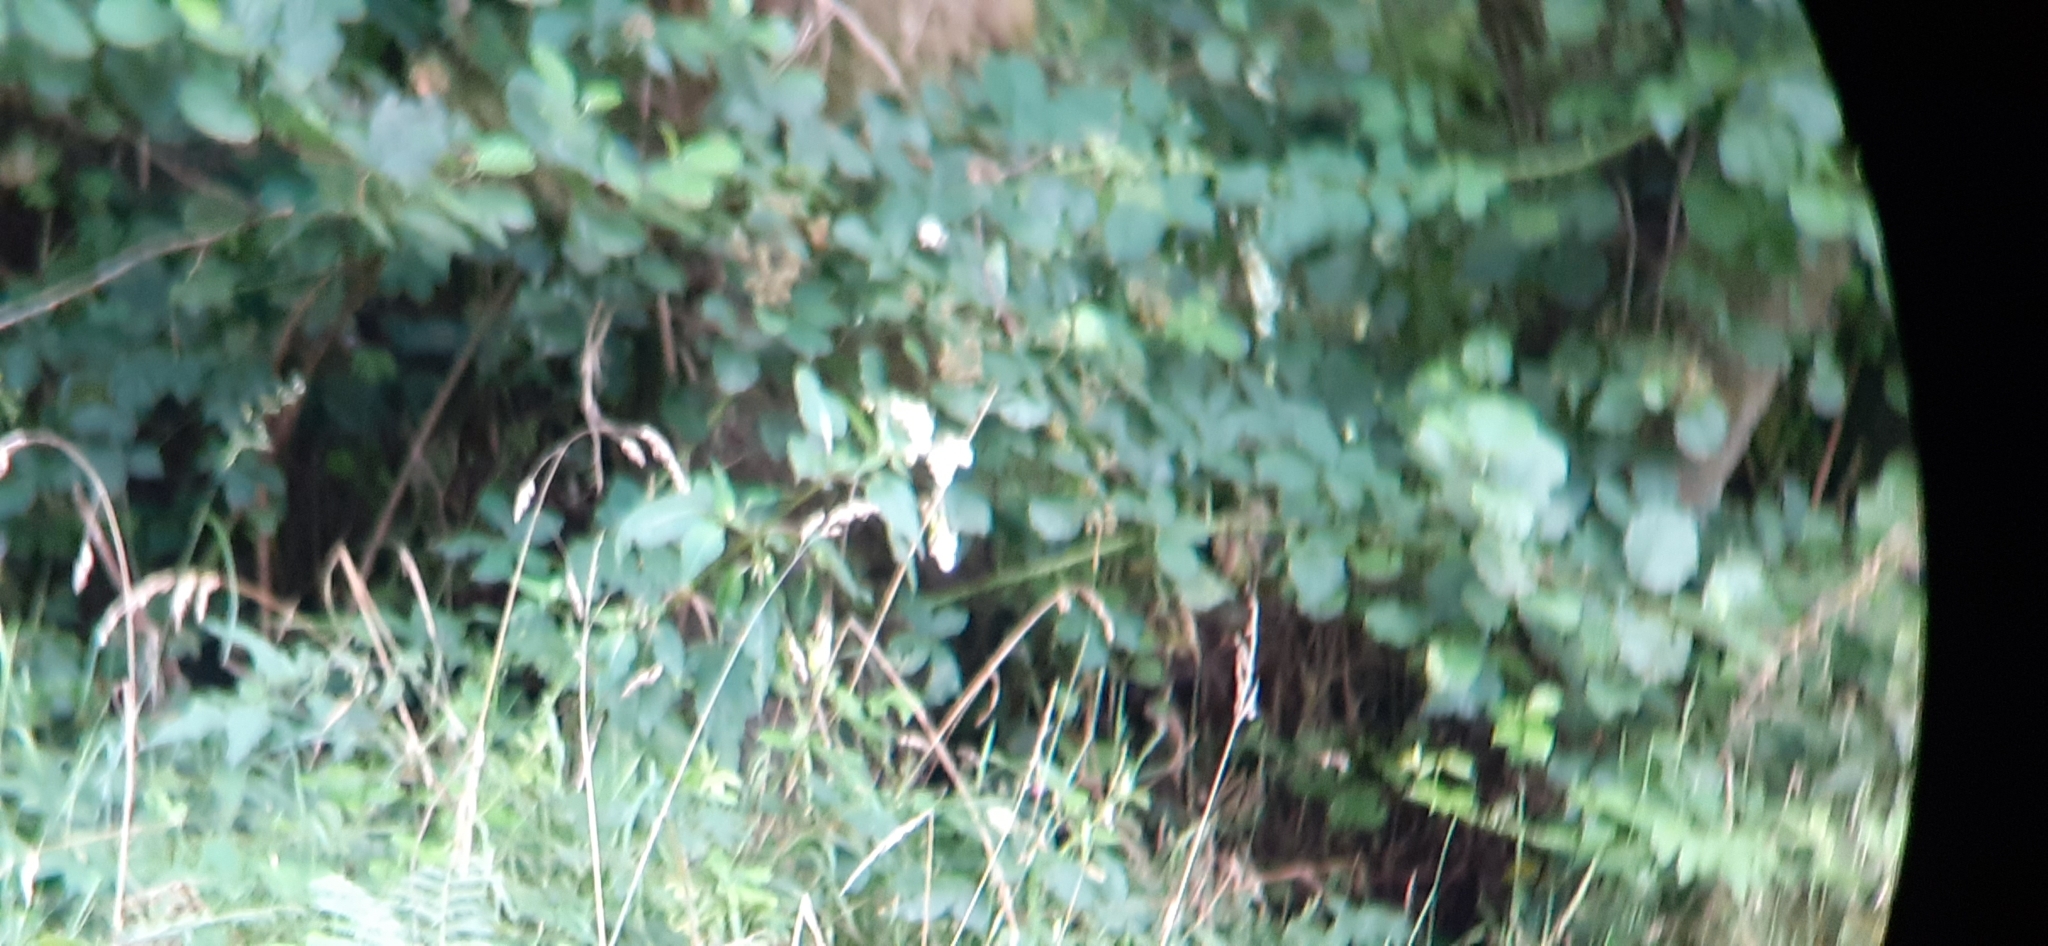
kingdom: Plantae
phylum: Tracheophyta
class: Magnoliopsida
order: Ericales
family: Balsaminaceae
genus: Impatiens
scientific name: Impatiens glandulifera
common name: Himalayan balsam
